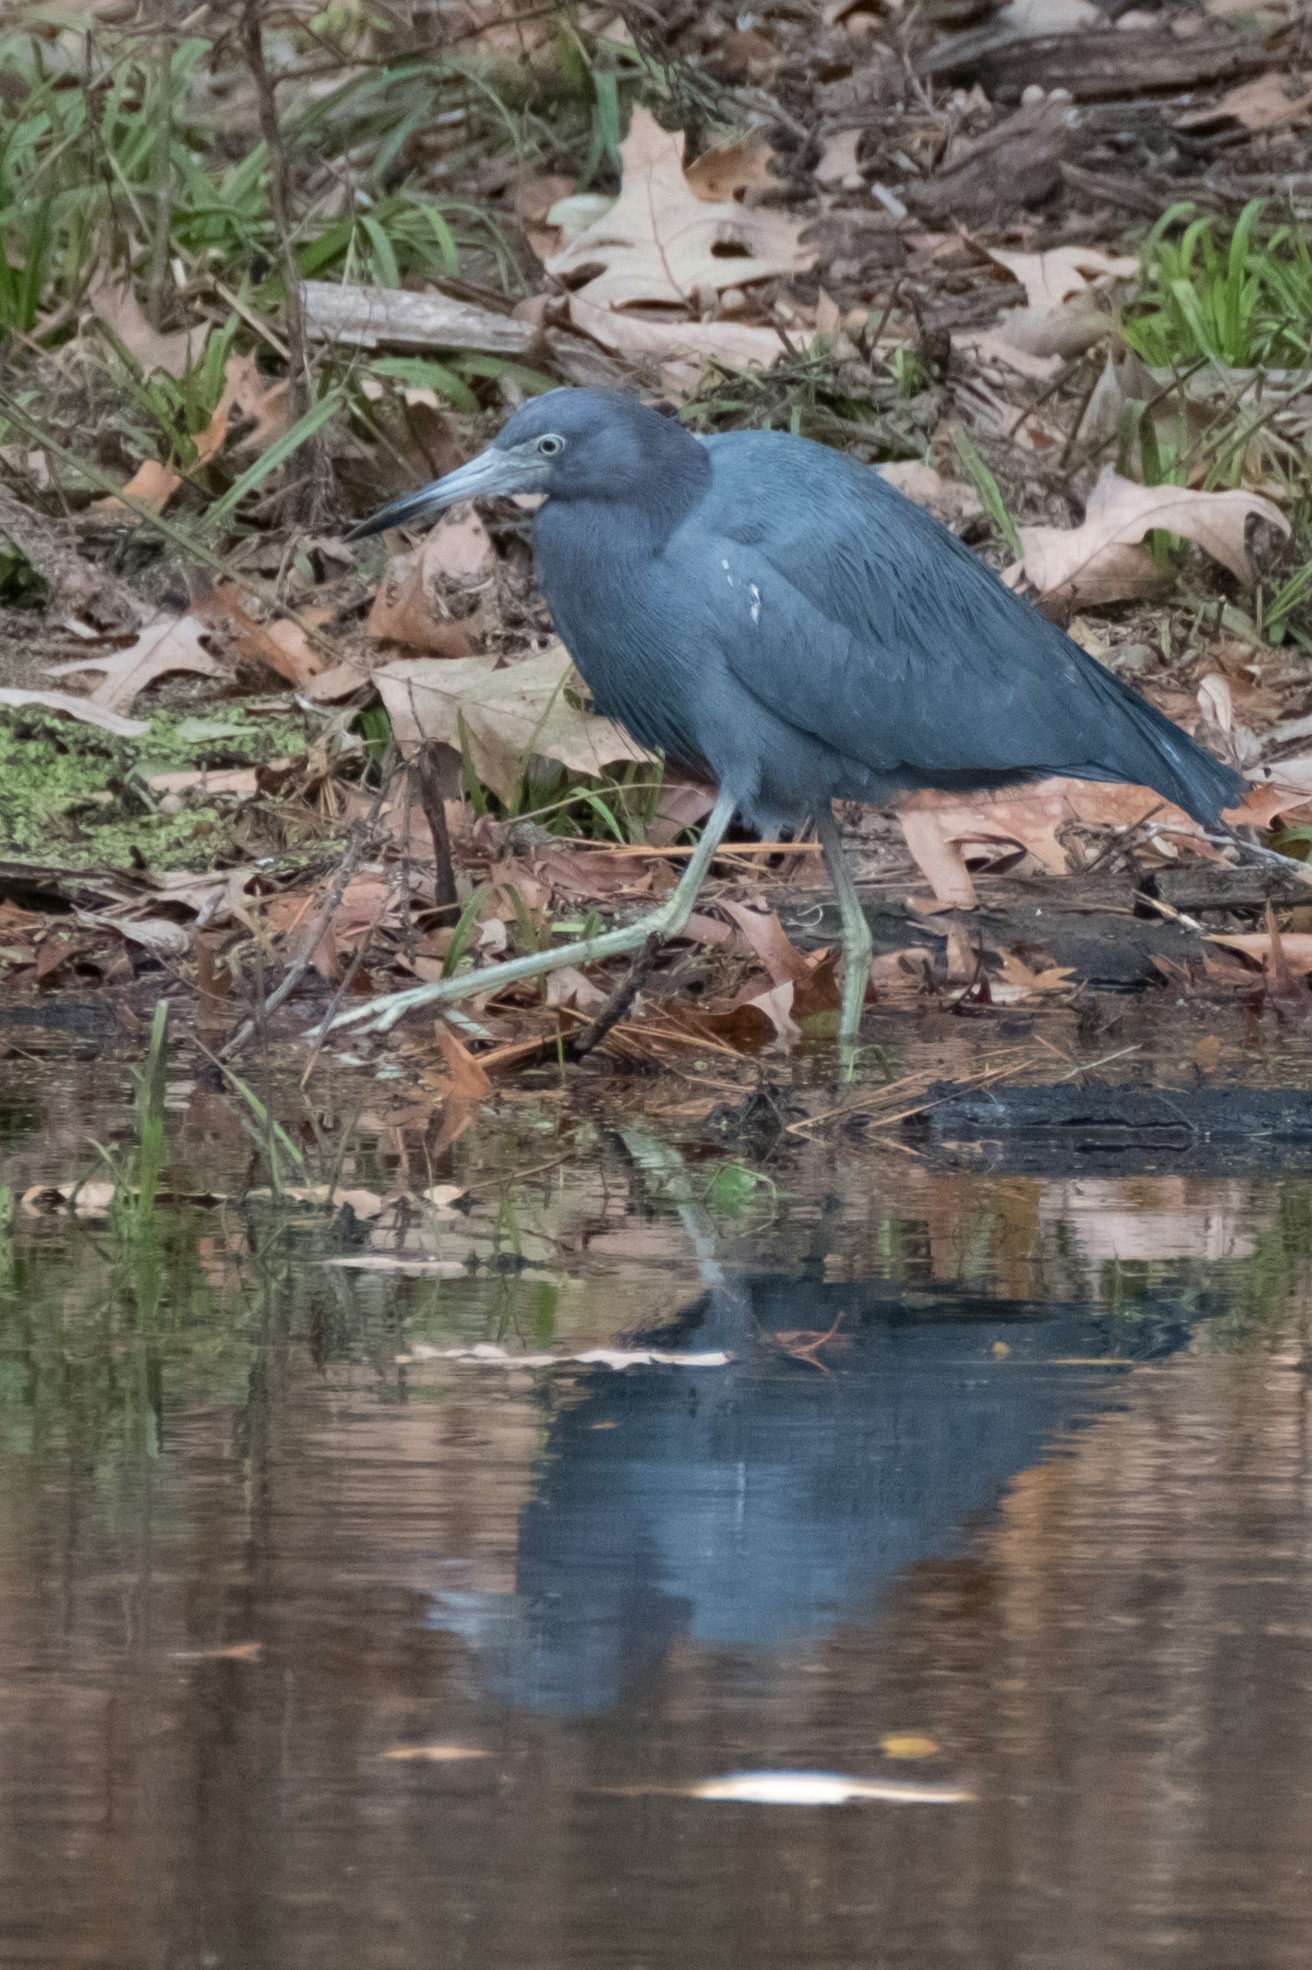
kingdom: Animalia
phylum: Chordata
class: Aves
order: Pelecaniformes
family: Ardeidae
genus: Egretta
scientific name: Egretta caerulea
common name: Little blue heron
